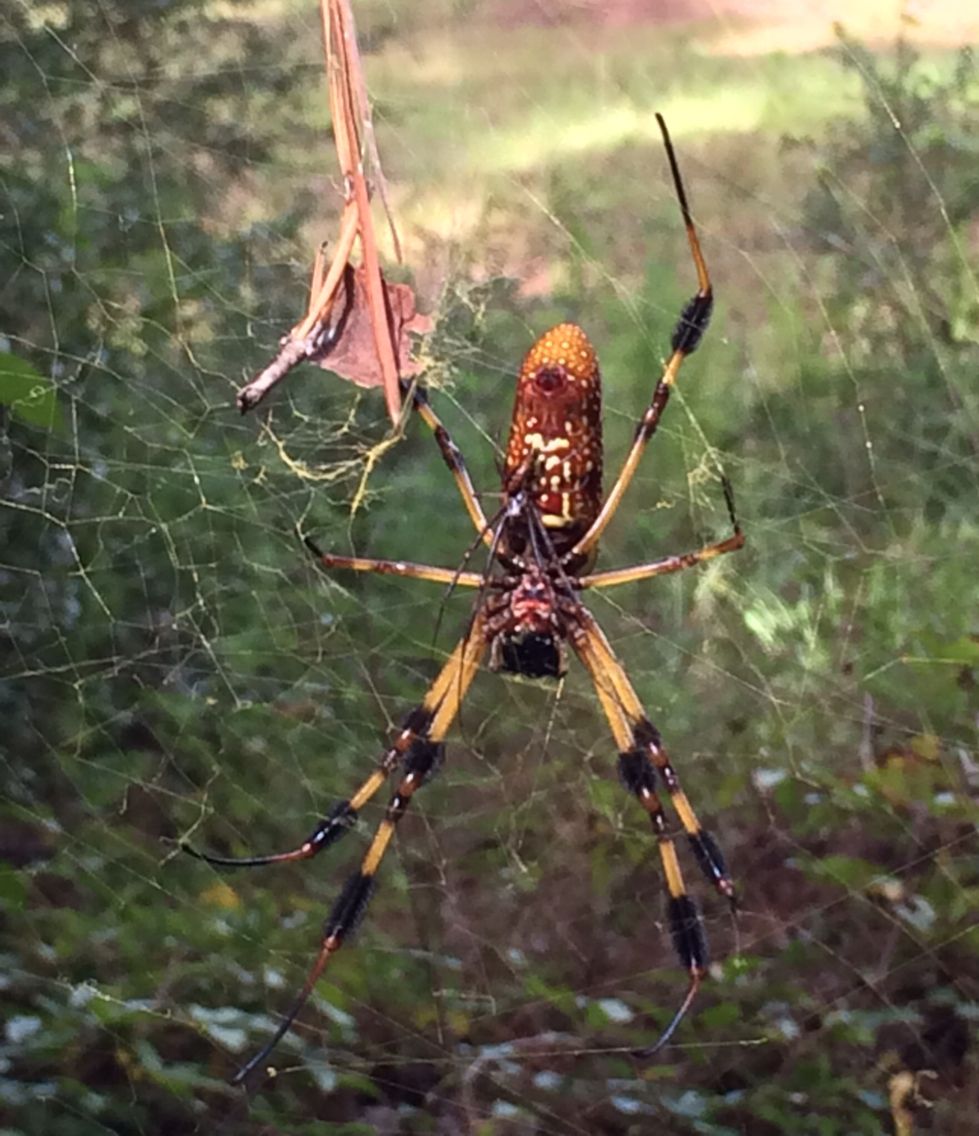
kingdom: Animalia
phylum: Arthropoda
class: Arachnida
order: Araneae
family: Araneidae
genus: Trichonephila
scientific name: Trichonephila clavipes
